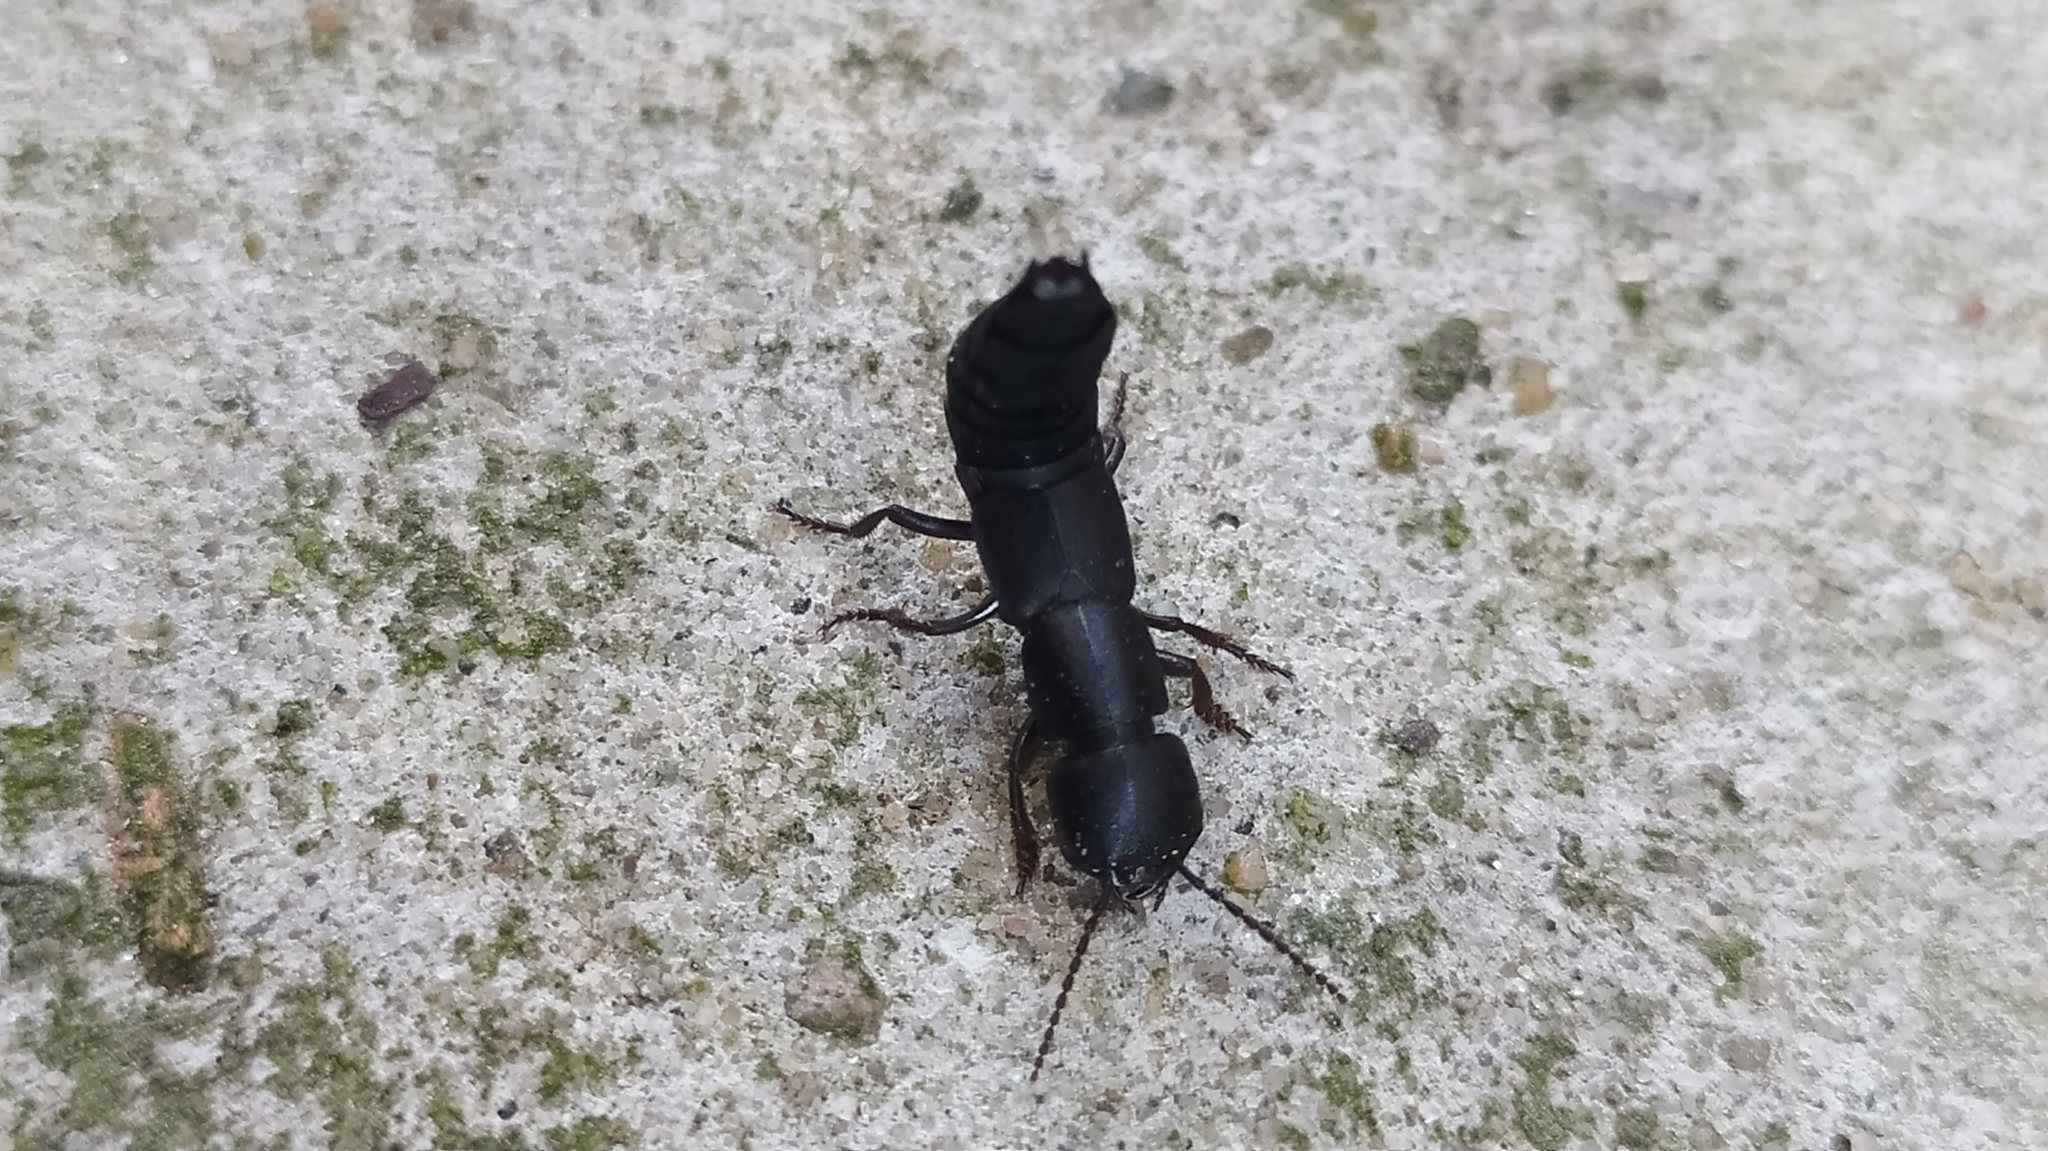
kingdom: Animalia
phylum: Arthropoda
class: Insecta
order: Coleoptera
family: Staphylinidae
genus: Ocypus
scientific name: Ocypus nitens
